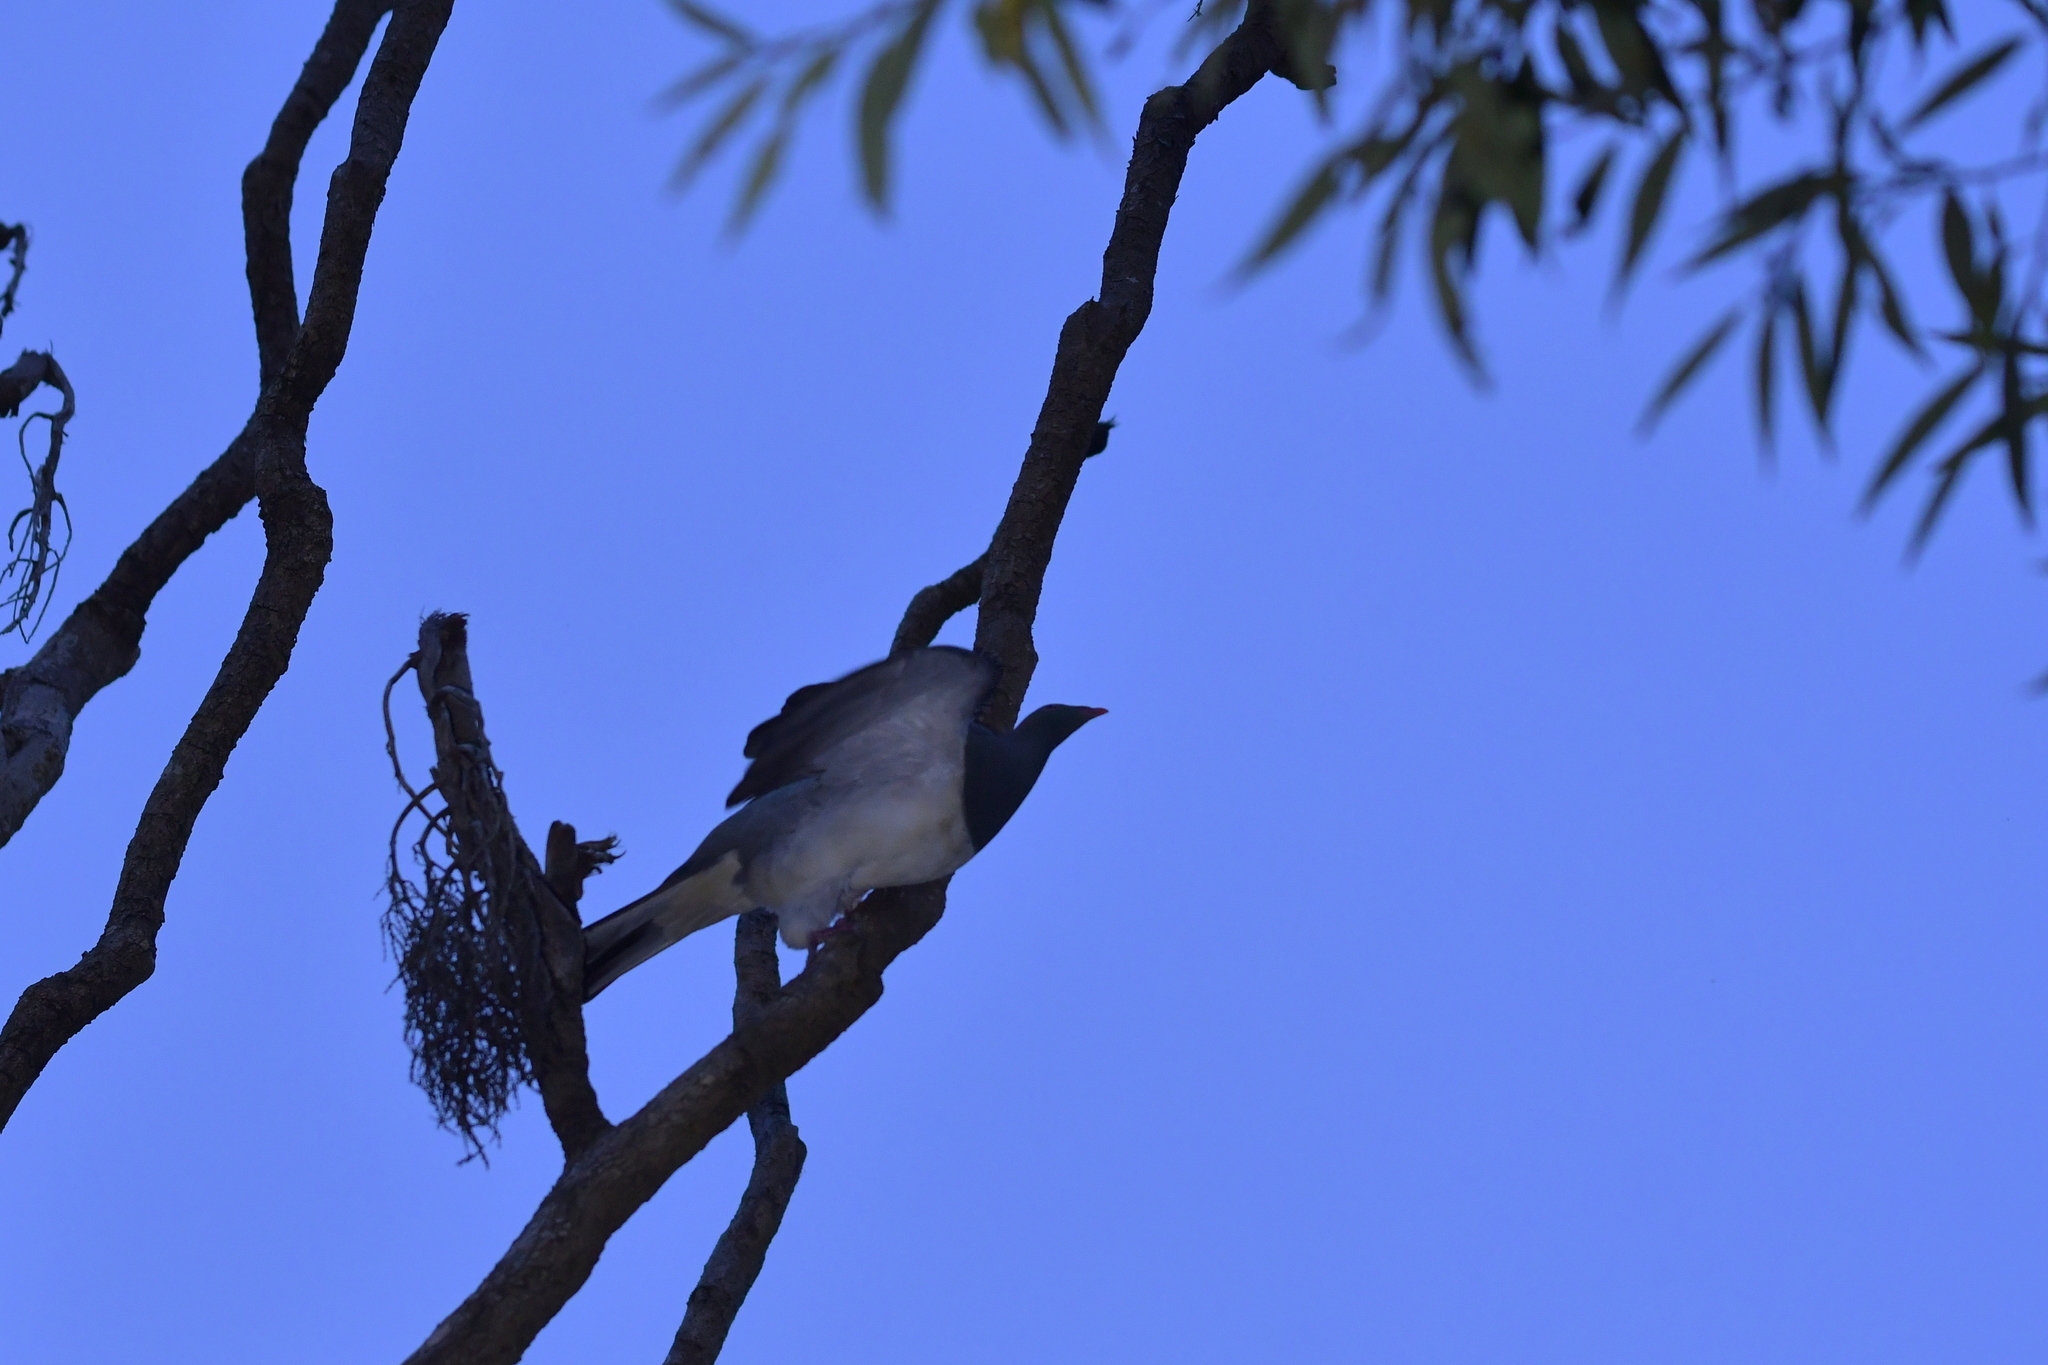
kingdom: Animalia
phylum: Chordata
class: Aves
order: Columbiformes
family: Columbidae
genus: Hemiphaga
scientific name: Hemiphaga novaeseelandiae
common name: New zealand pigeon
